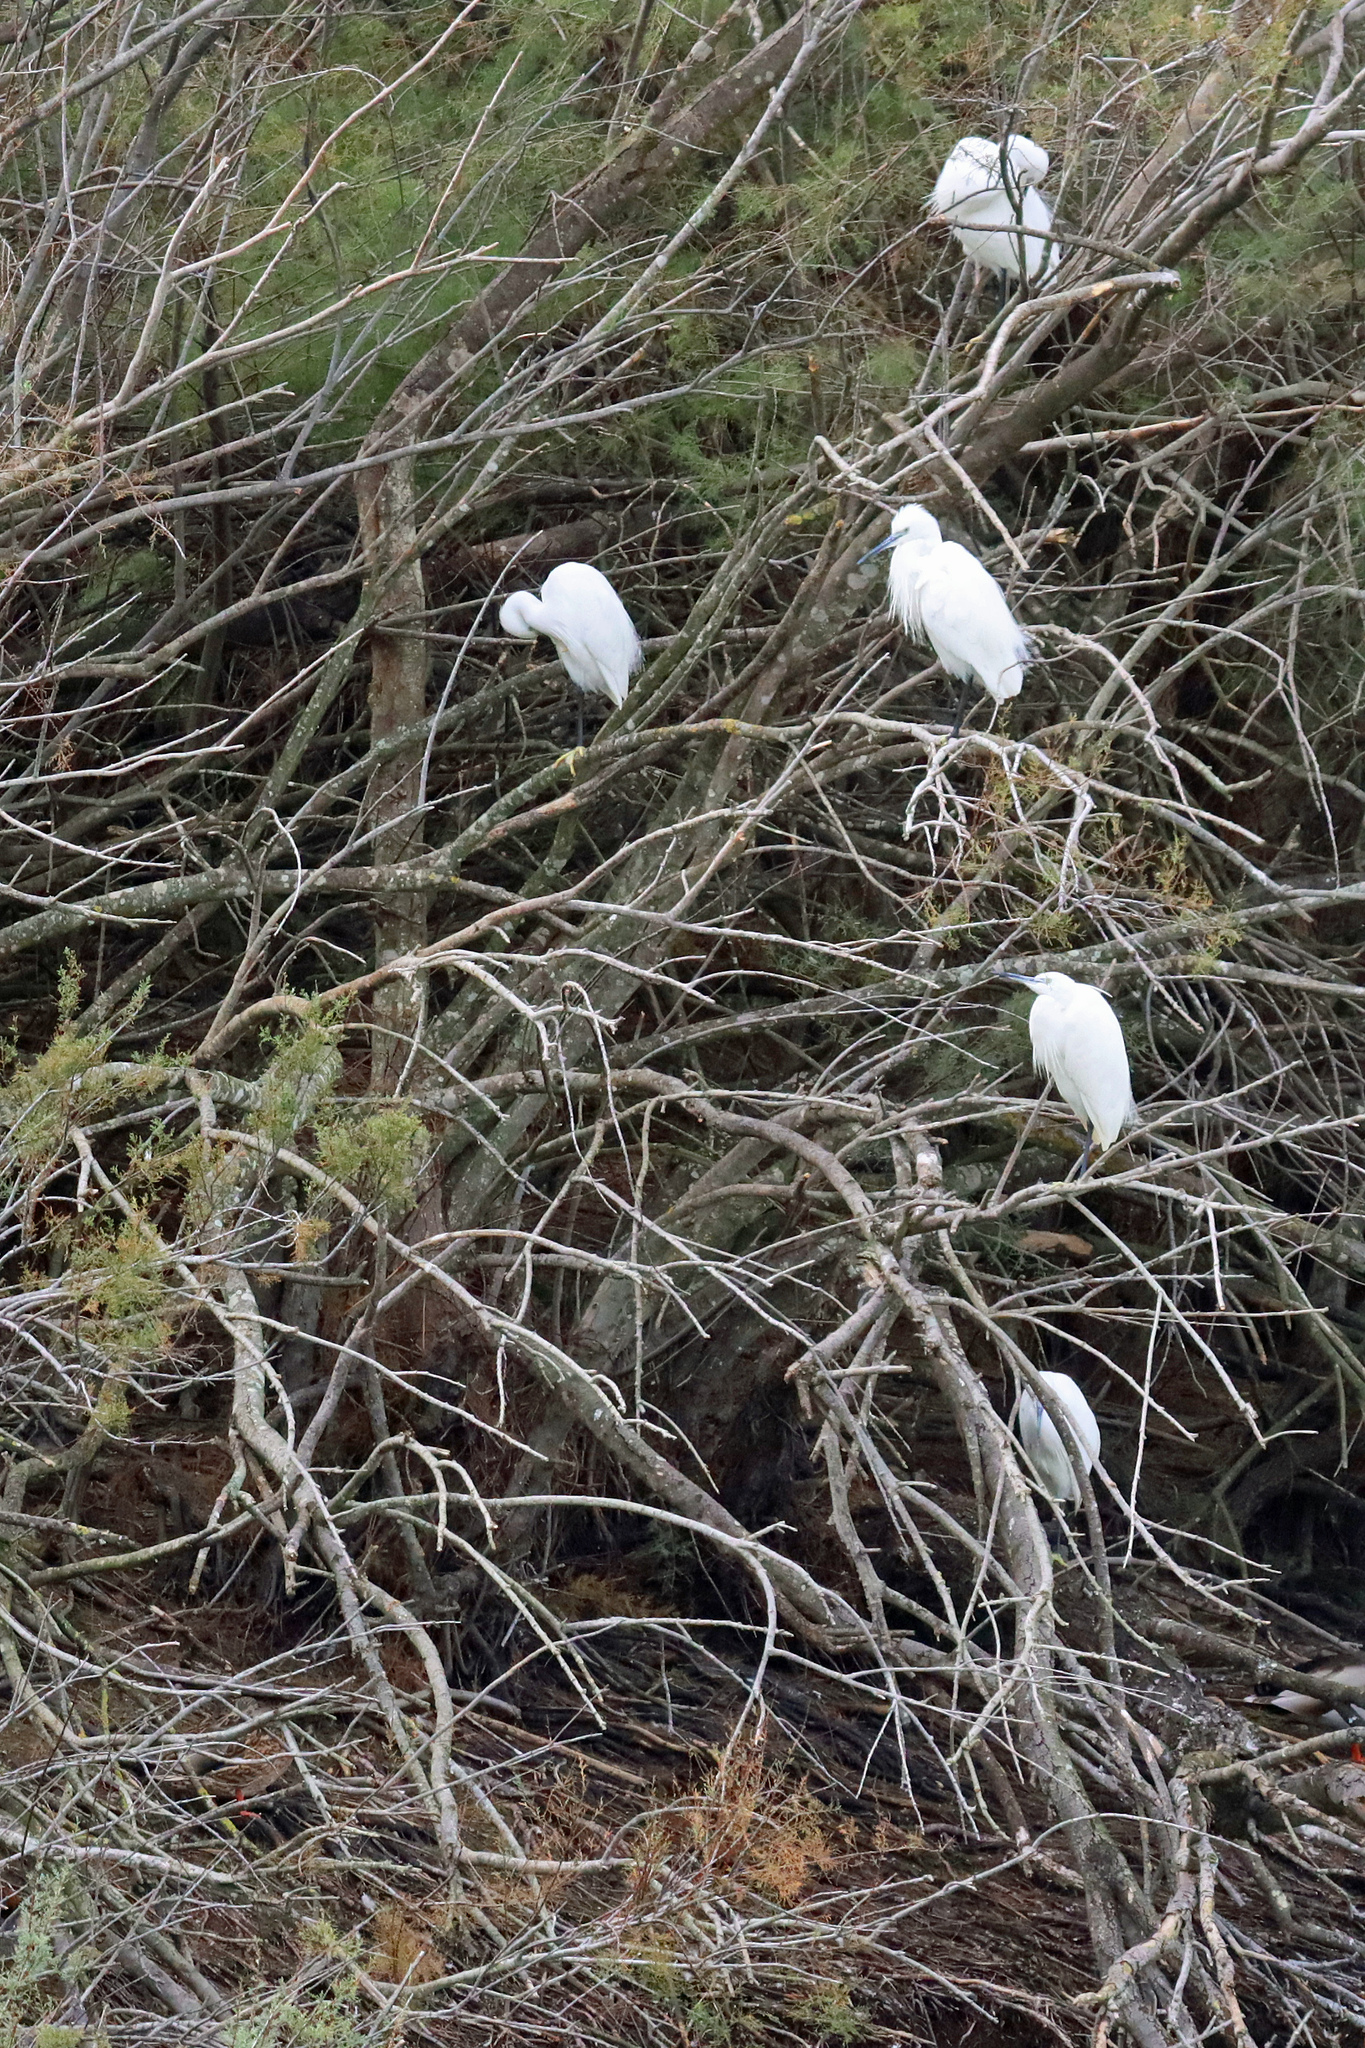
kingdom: Animalia
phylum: Chordata
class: Aves
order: Pelecaniformes
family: Ardeidae
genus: Egretta
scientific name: Egretta garzetta
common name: Little egret
